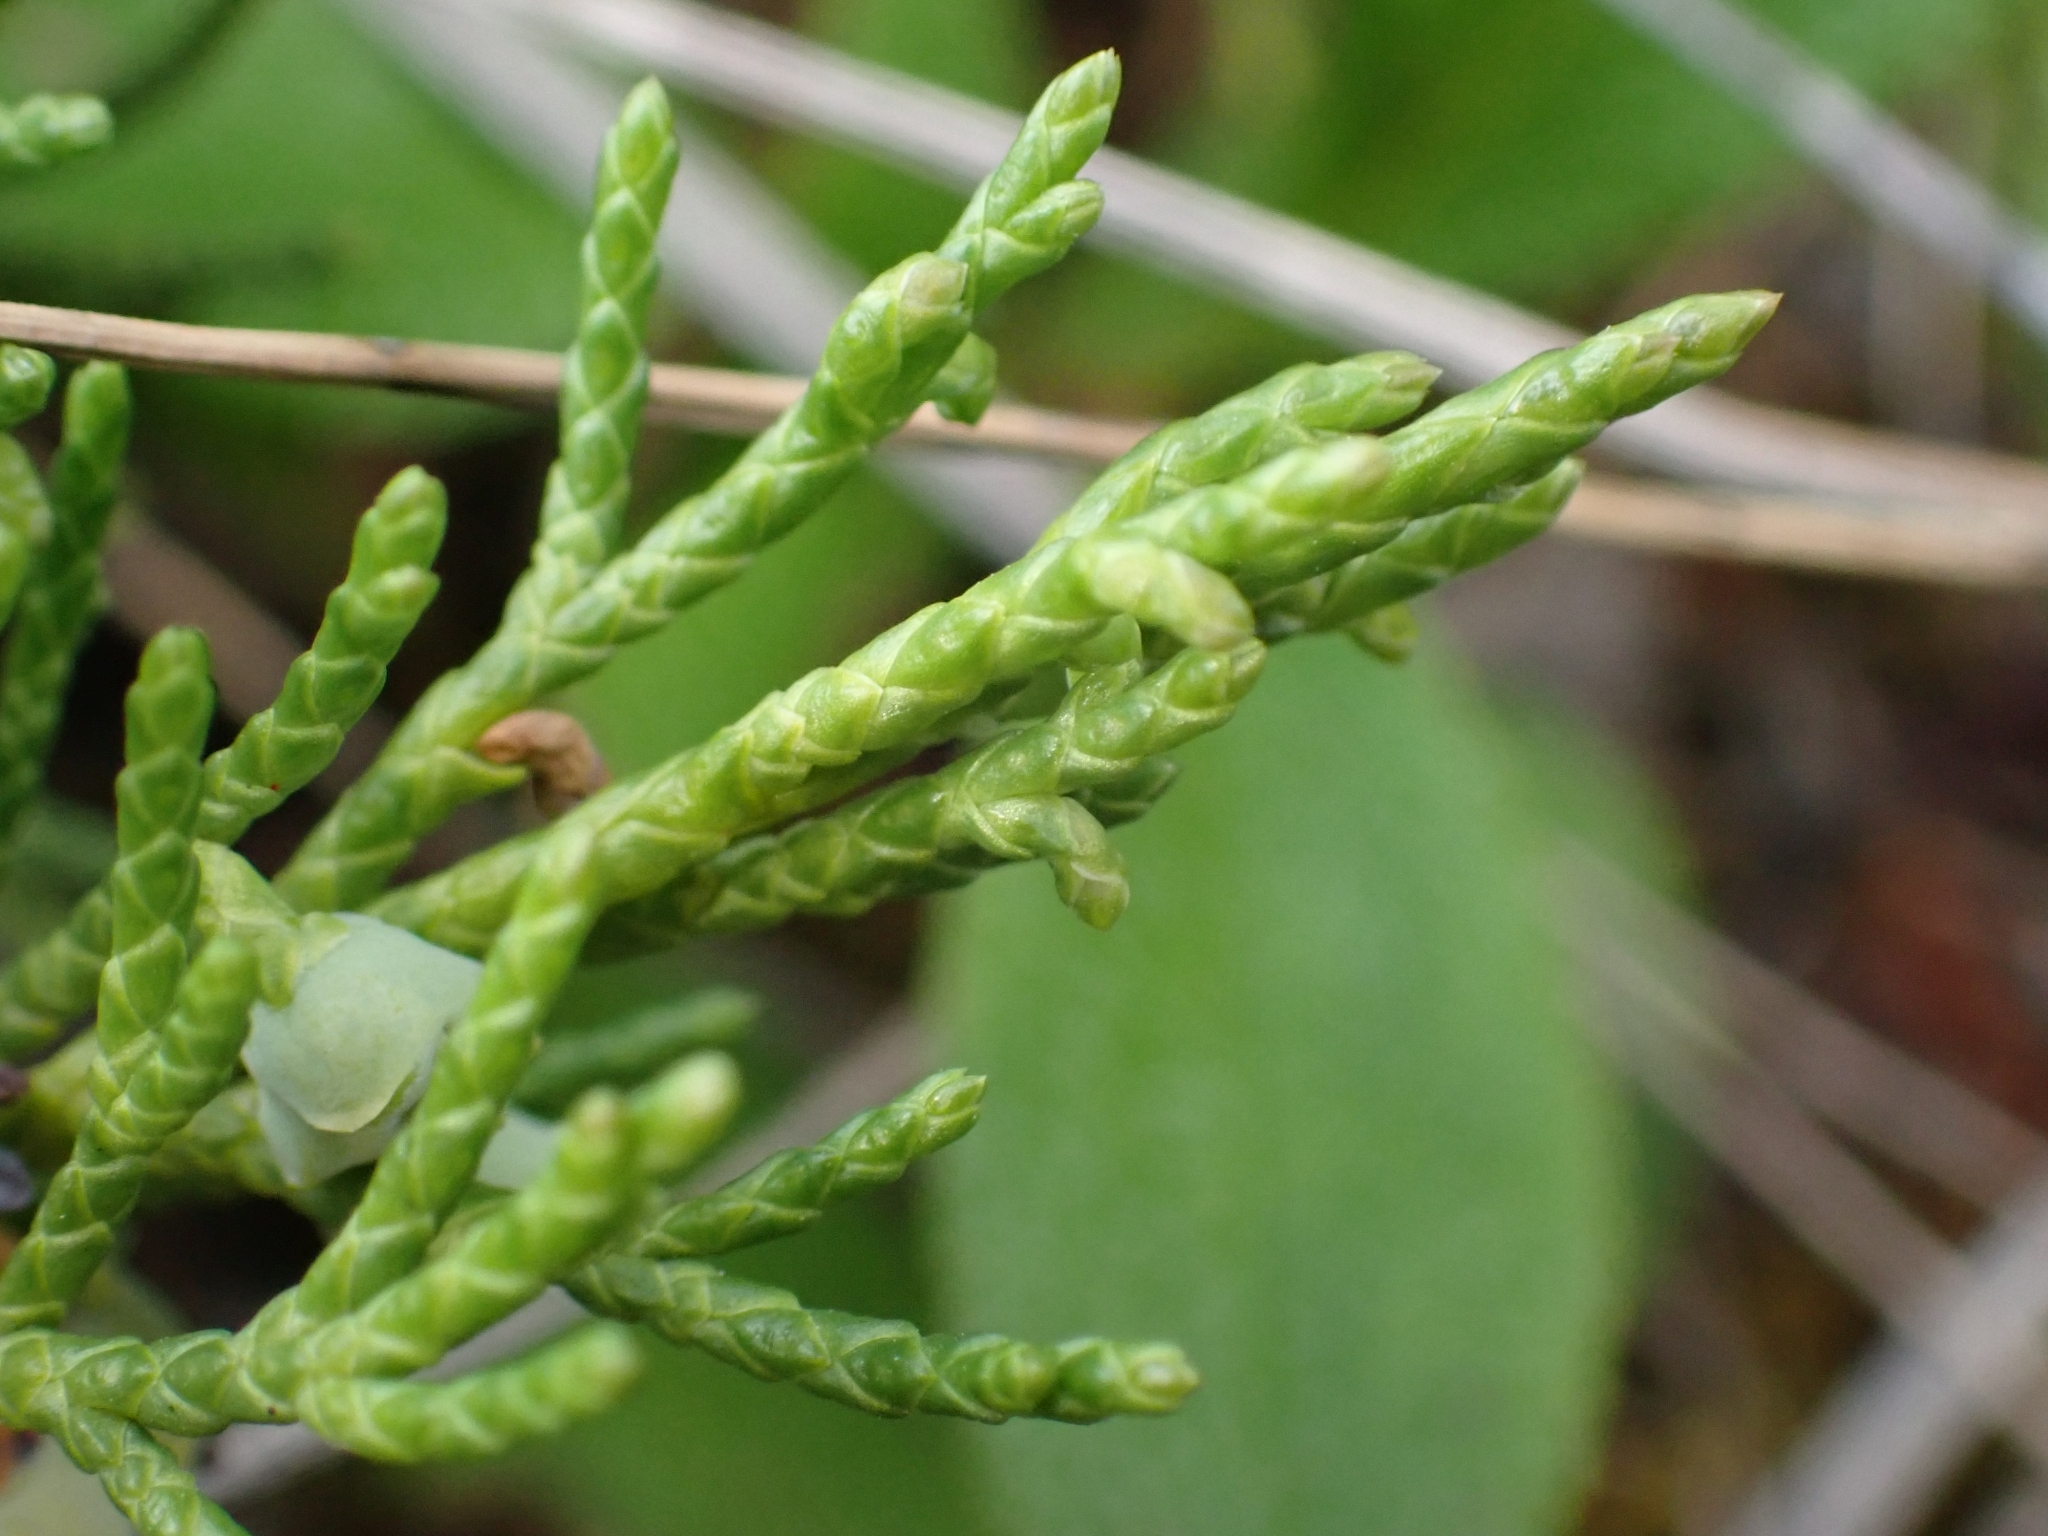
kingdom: Plantae
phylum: Tracheophyta
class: Pinopsida
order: Pinales
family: Cupressaceae
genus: Juniperus
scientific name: Juniperus horizontalis
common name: Creeping juniper
